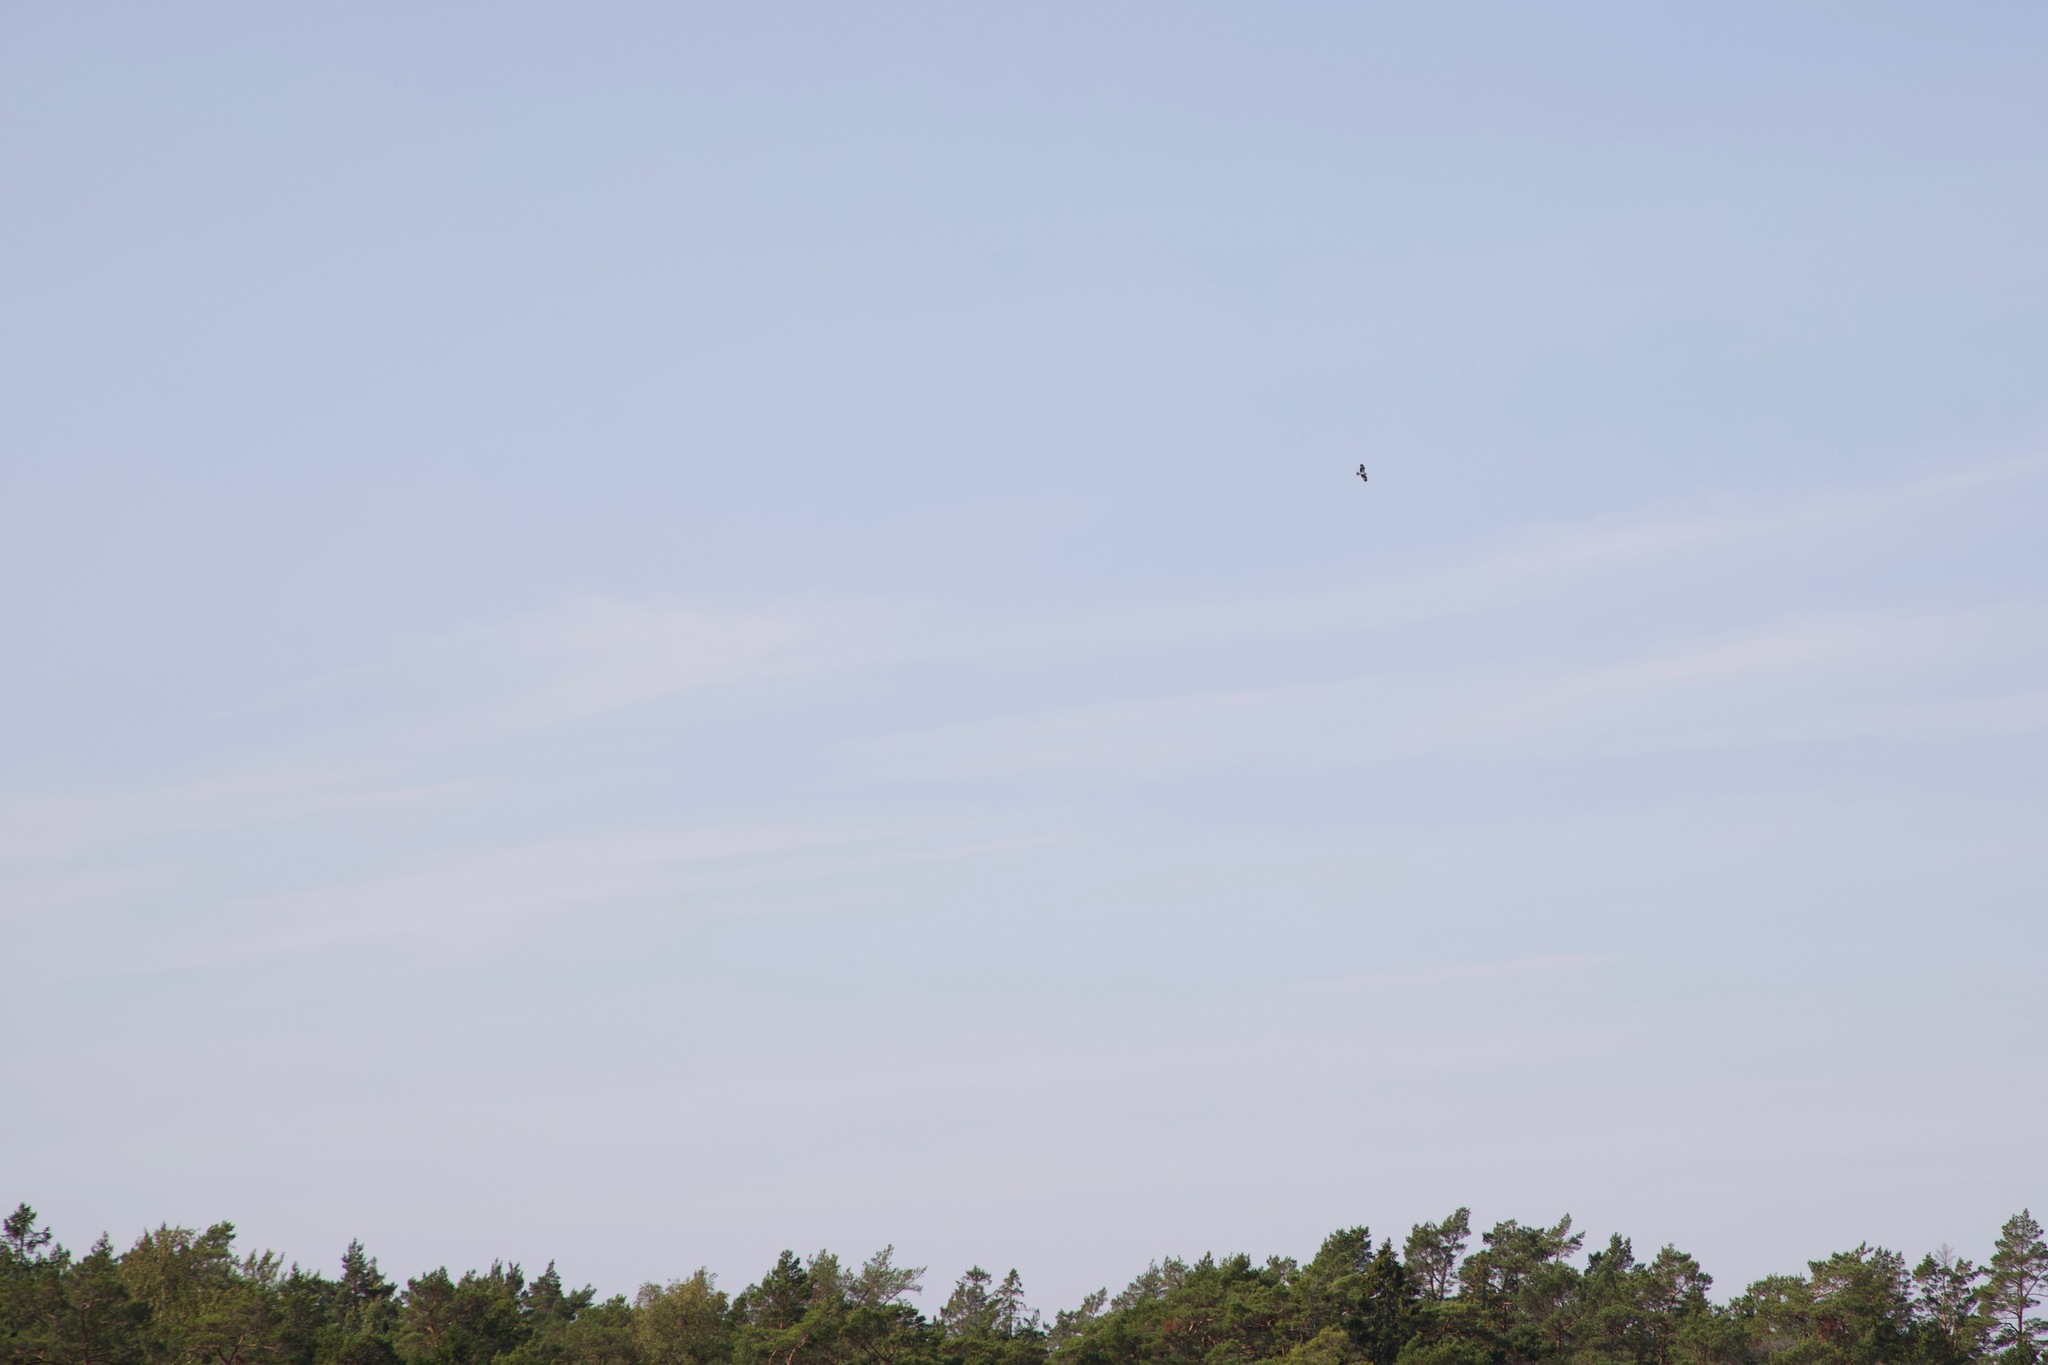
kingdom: Animalia
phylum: Chordata
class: Aves
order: Accipitriformes
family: Pandionidae
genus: Pandion
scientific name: Pandion haliaetus
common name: Osprey
